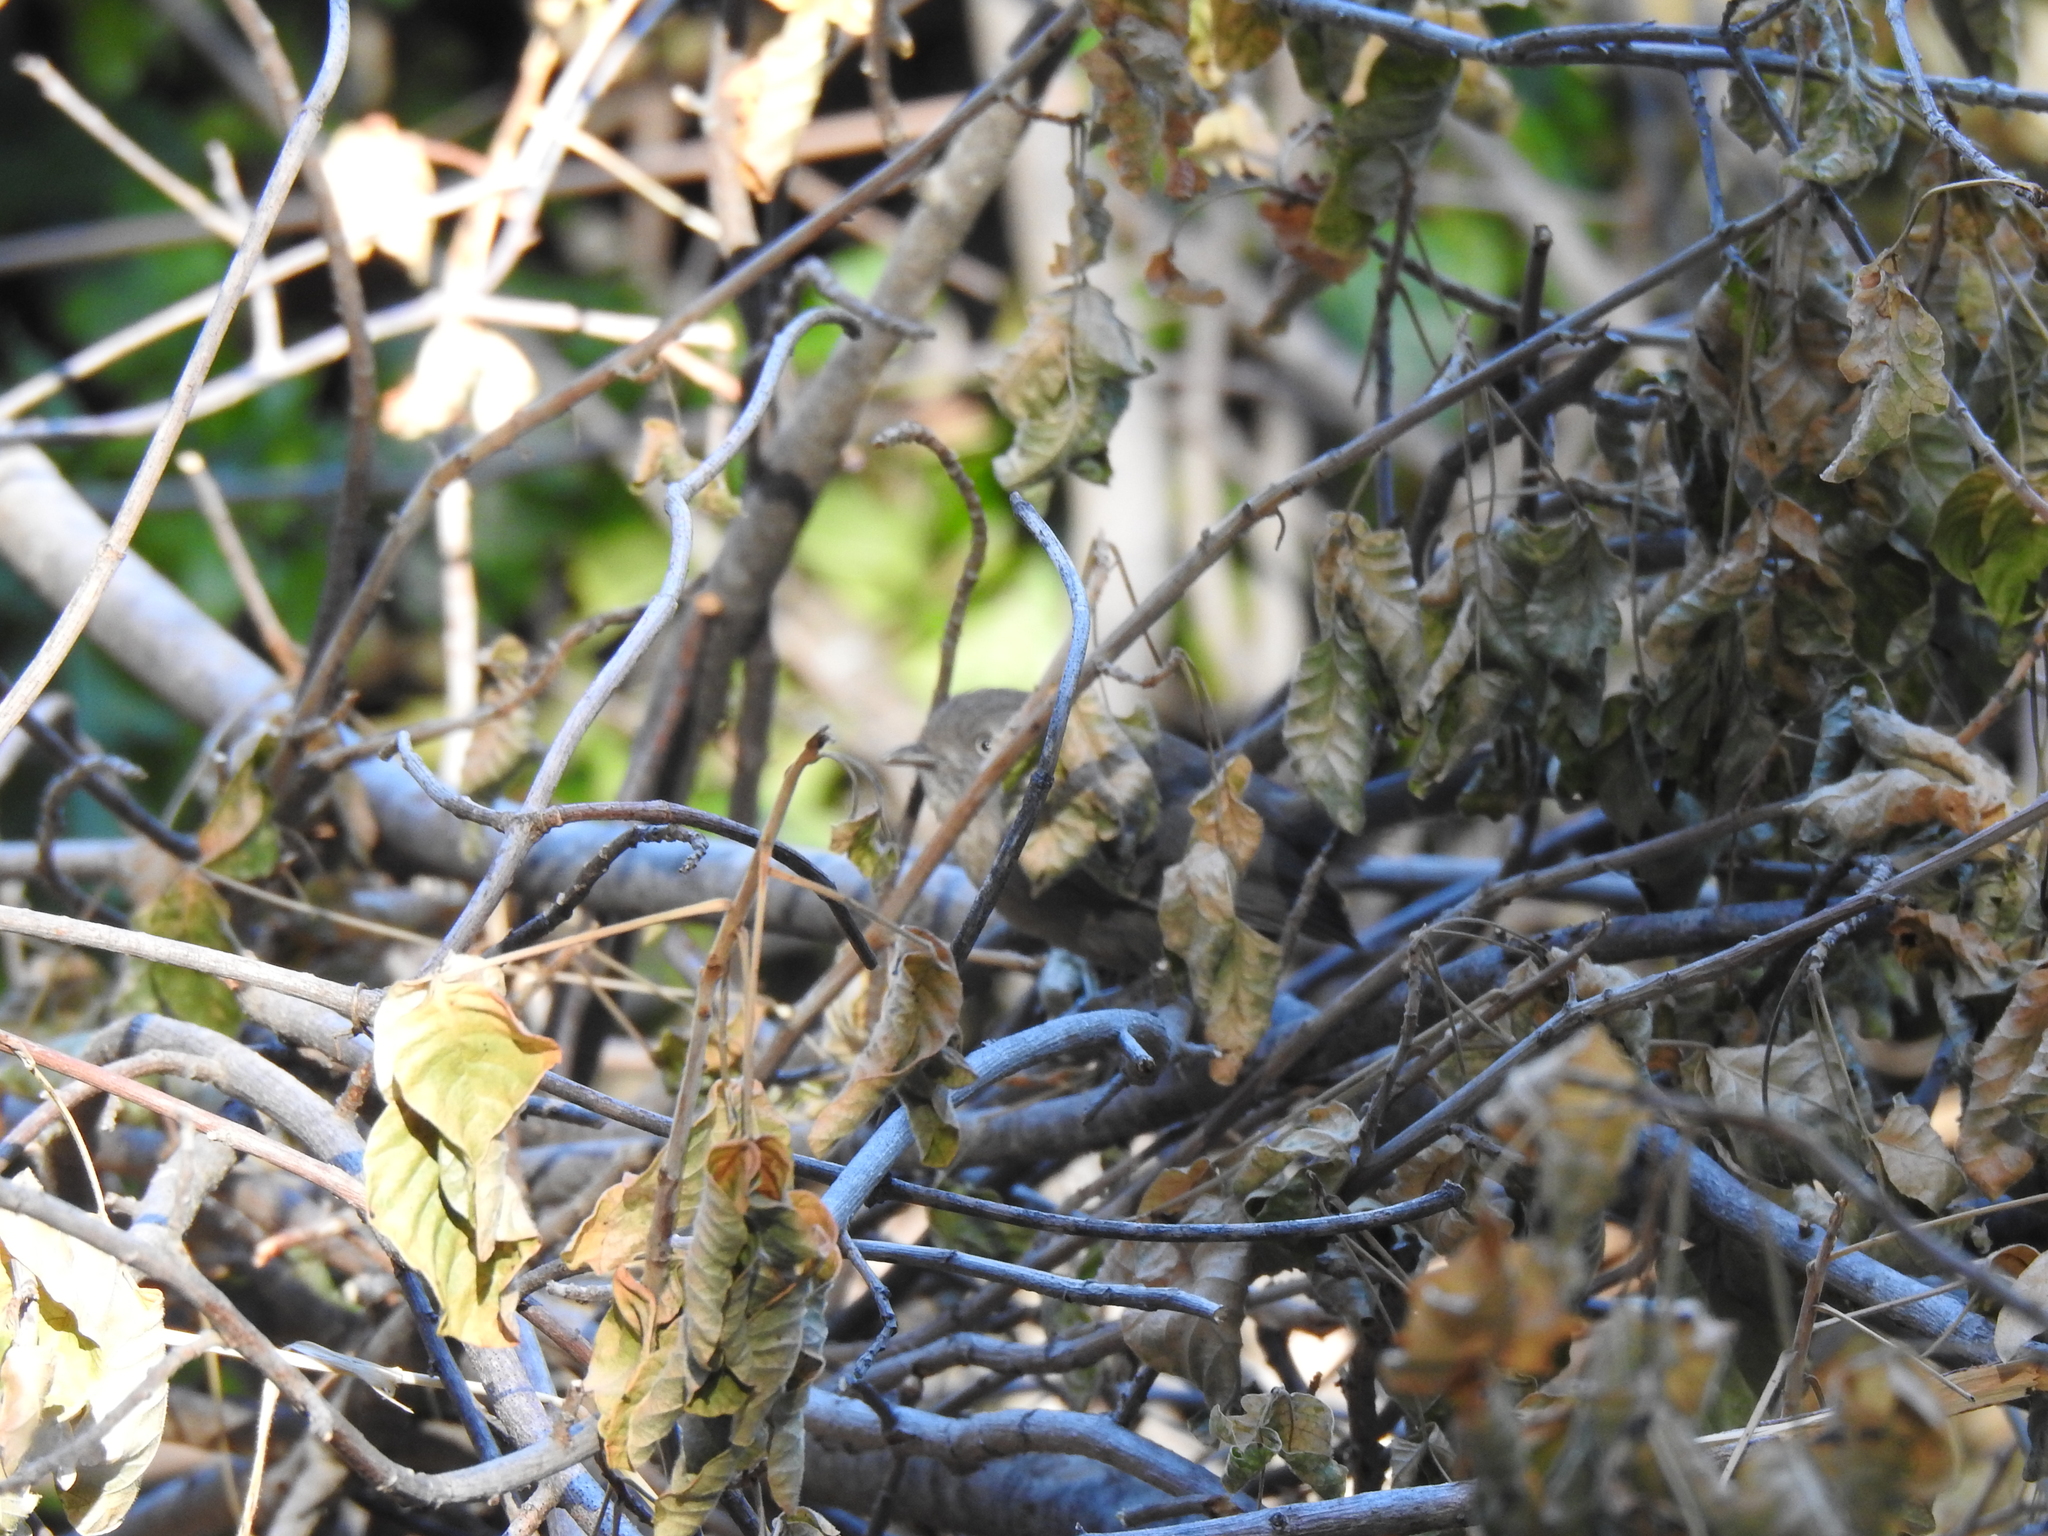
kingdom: Animalia
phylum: Chordata
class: Aves
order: Passeriformes
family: Sylviidae
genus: Chamaea
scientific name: Chamaea fasciata
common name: Wrentit
